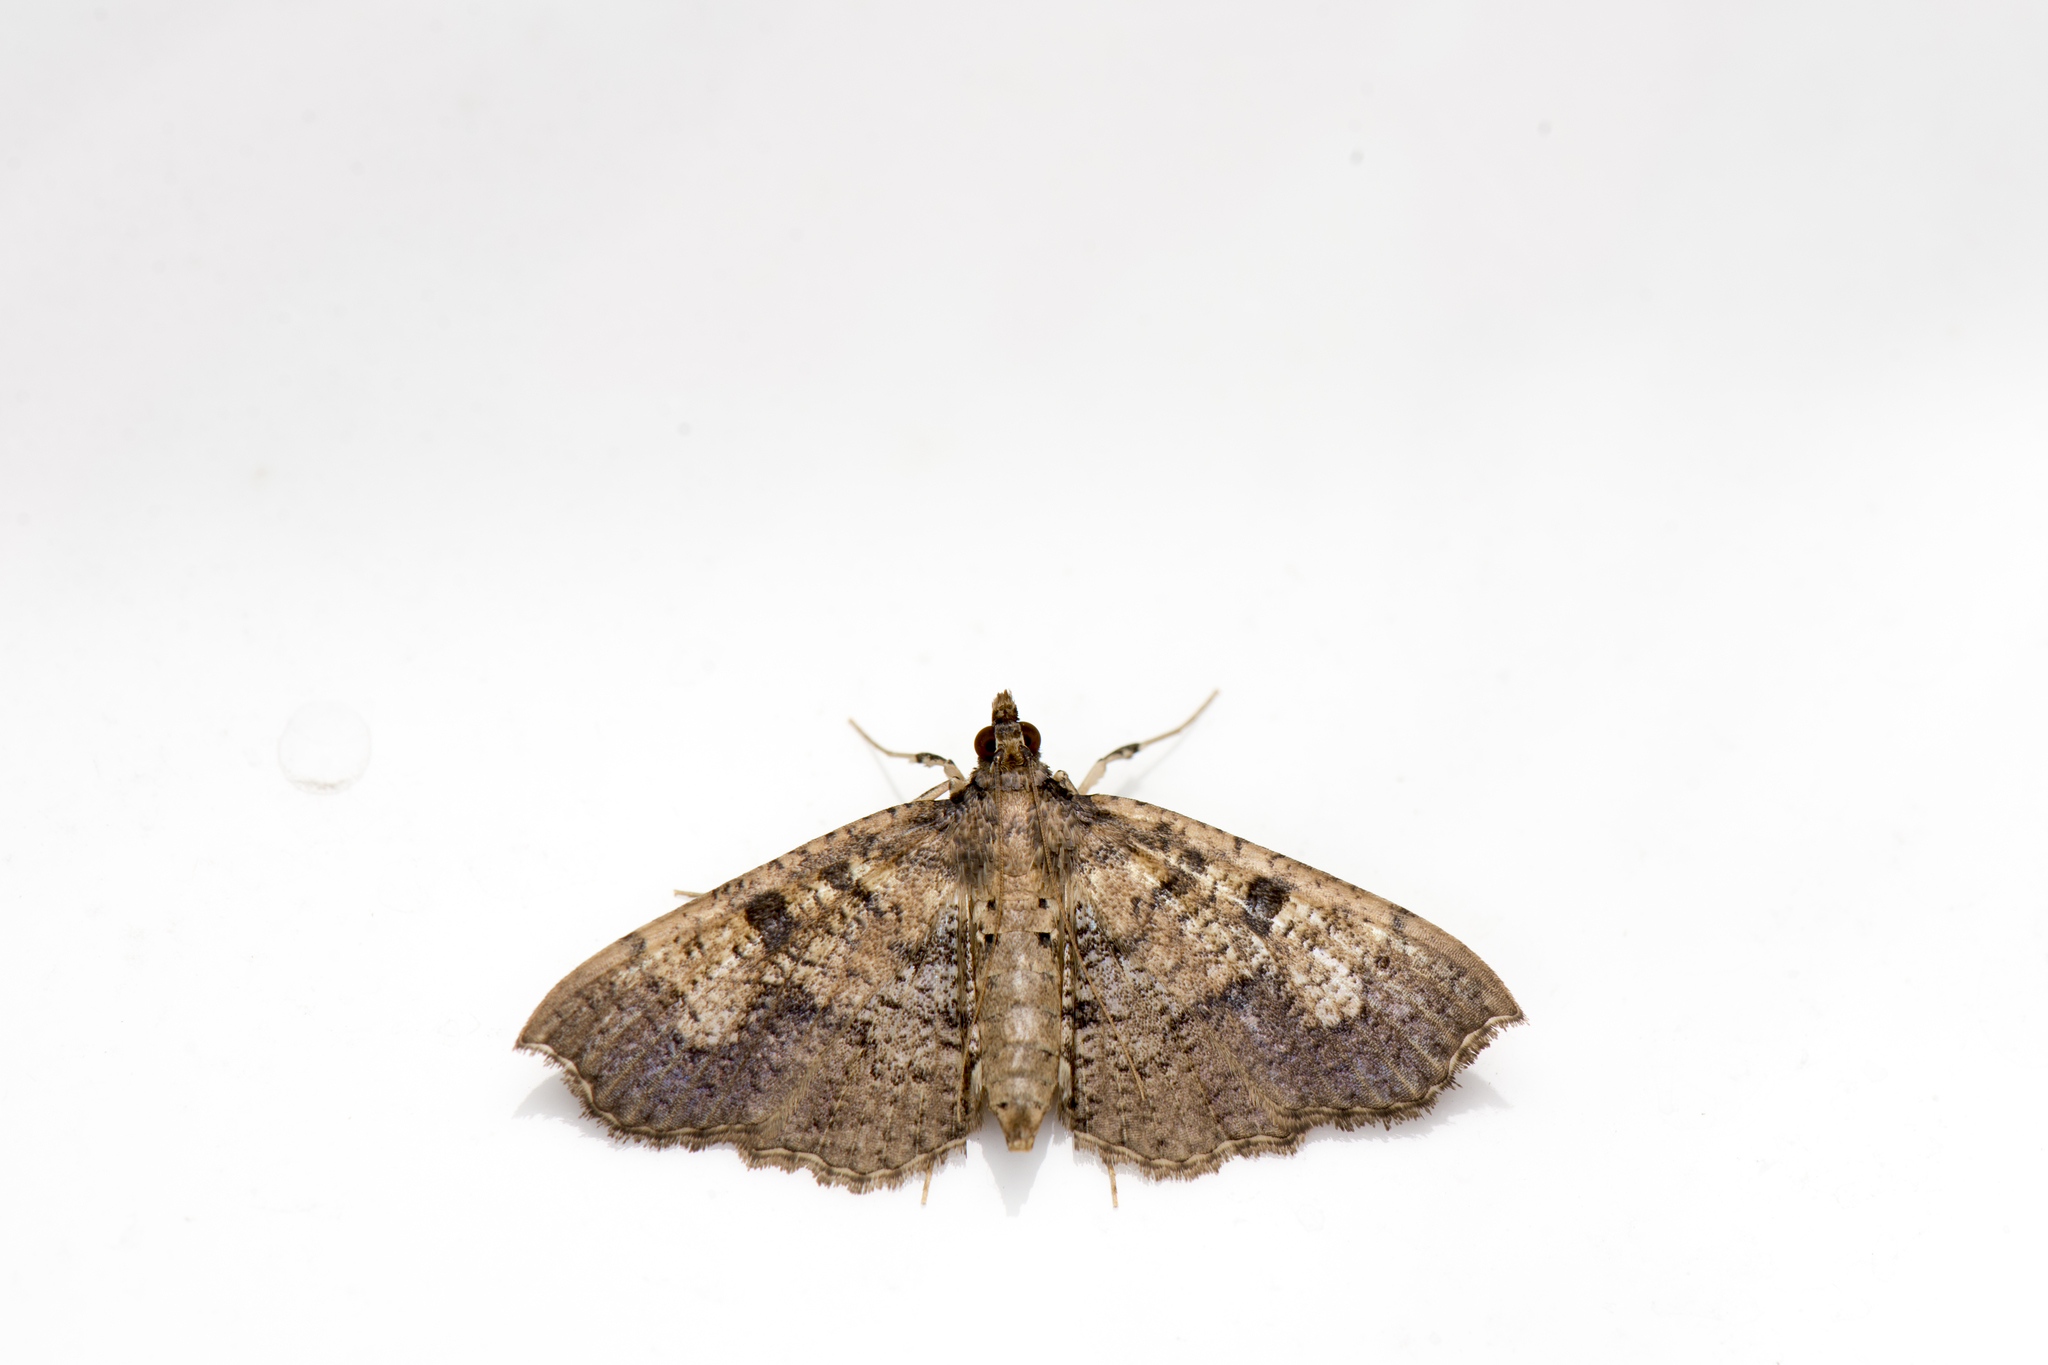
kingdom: Animalia
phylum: Arthropoda
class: Insecta
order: Lepidoptera
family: Crambidae
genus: Ceratarcha
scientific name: Ceratarcha umbrosa
